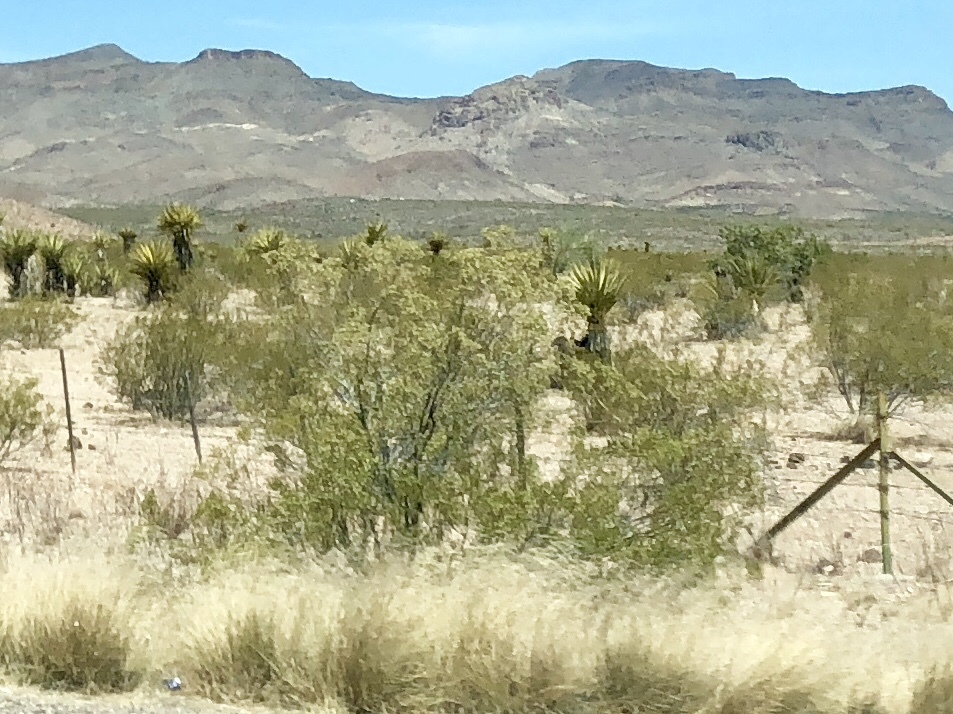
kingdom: Plantae
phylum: Tracheophyta
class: Magnoliopsida
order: Zygophyllales
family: Zygophyllaceae
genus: Larrea
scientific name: Larrea tridentata
